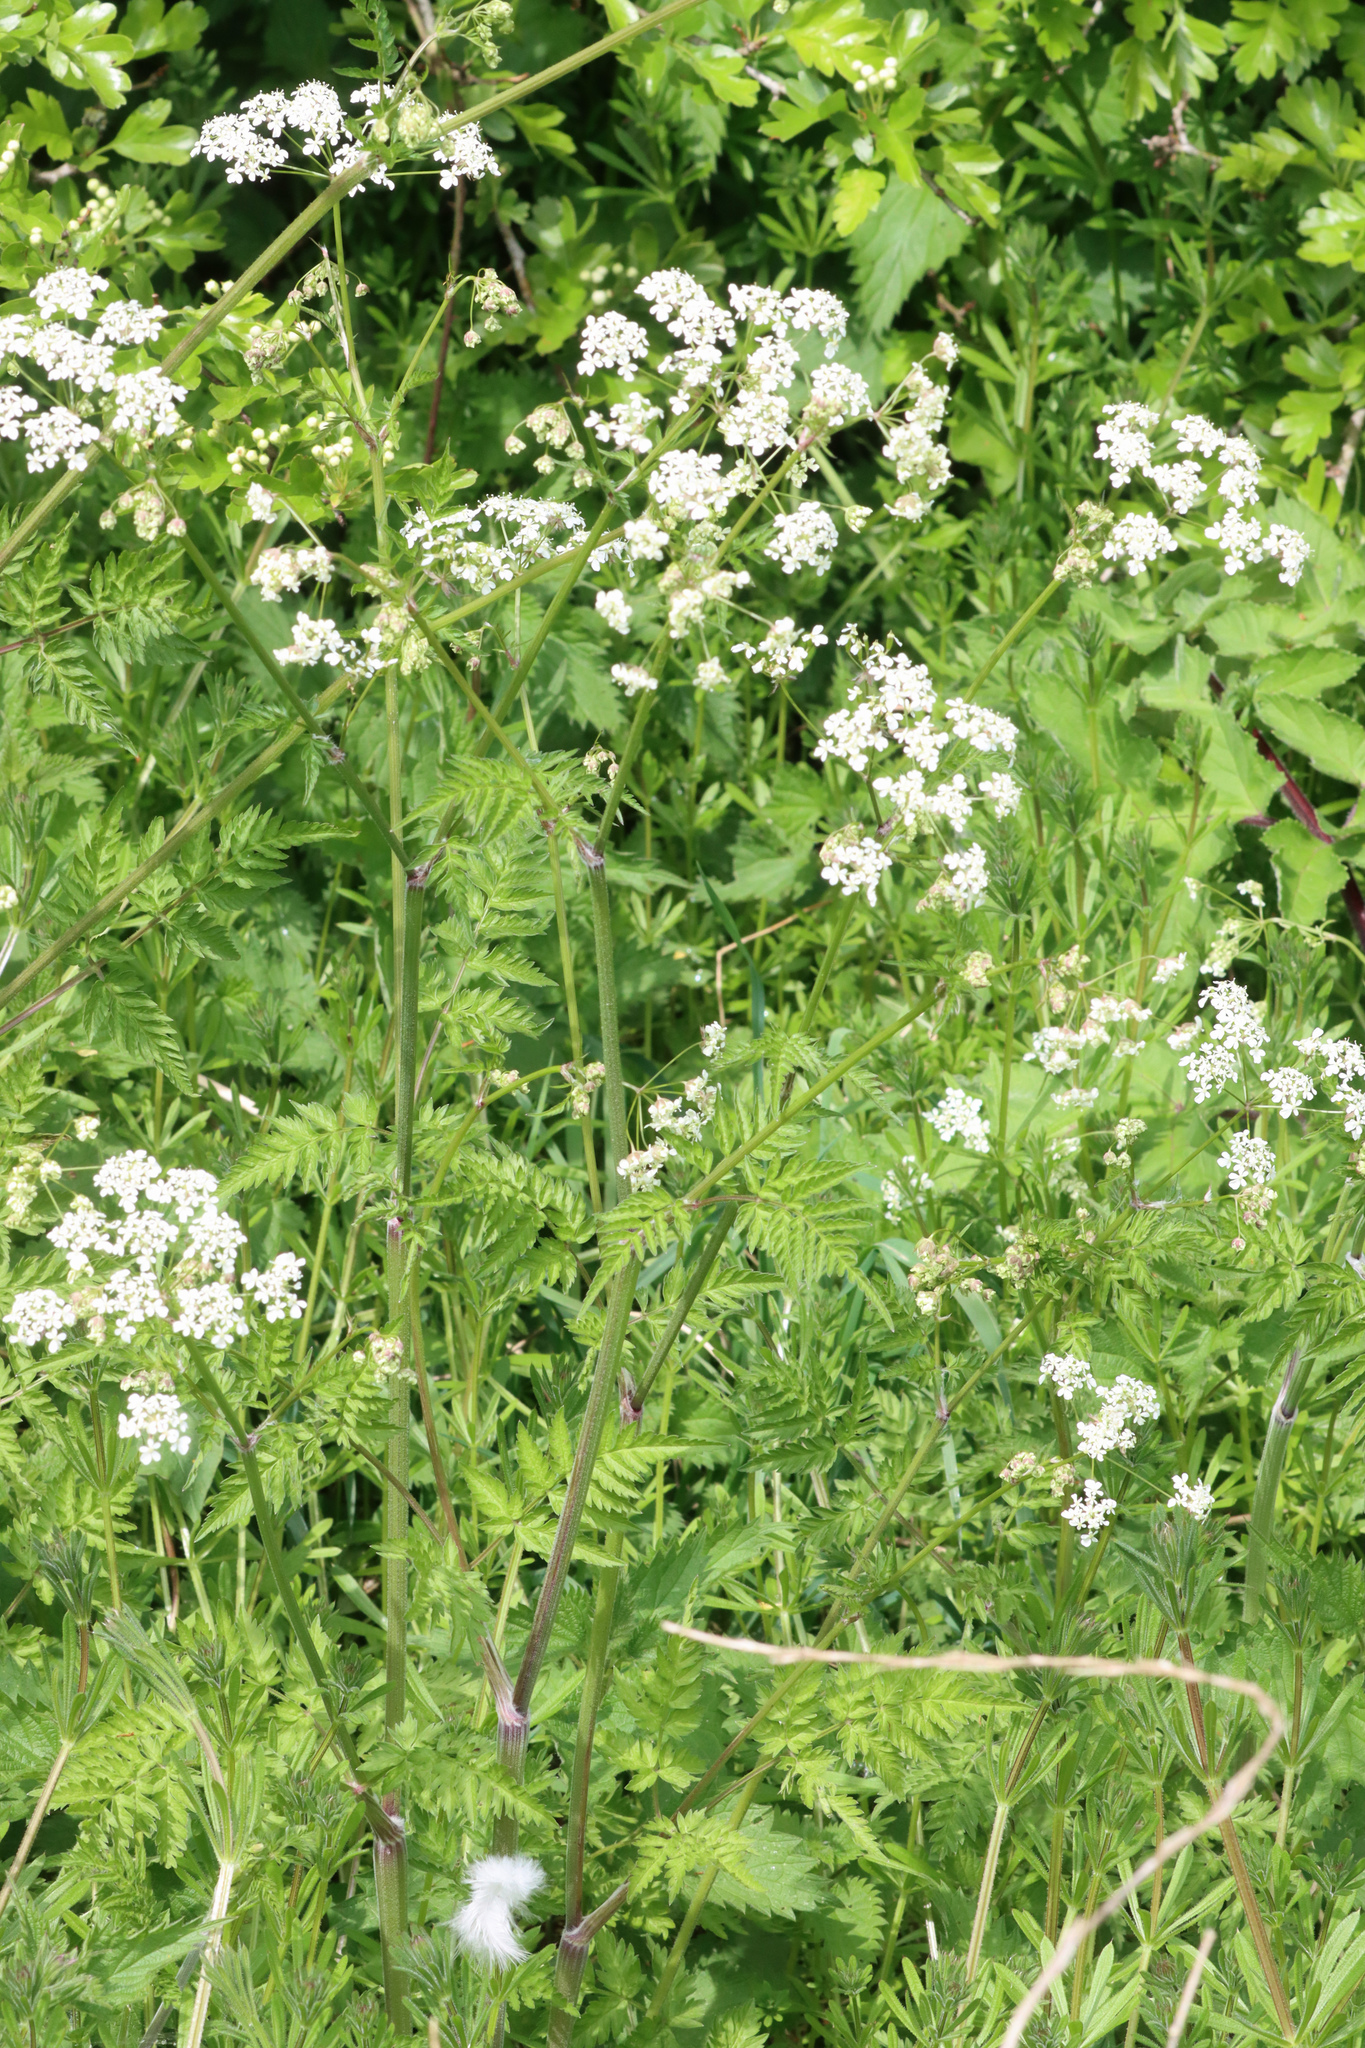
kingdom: Plantae
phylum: Tracheophyta
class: Magnoliopsida
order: Apiales
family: Apiaceae
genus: Anthriscus
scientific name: Anthriscus sylvestris
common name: Cow parsley
